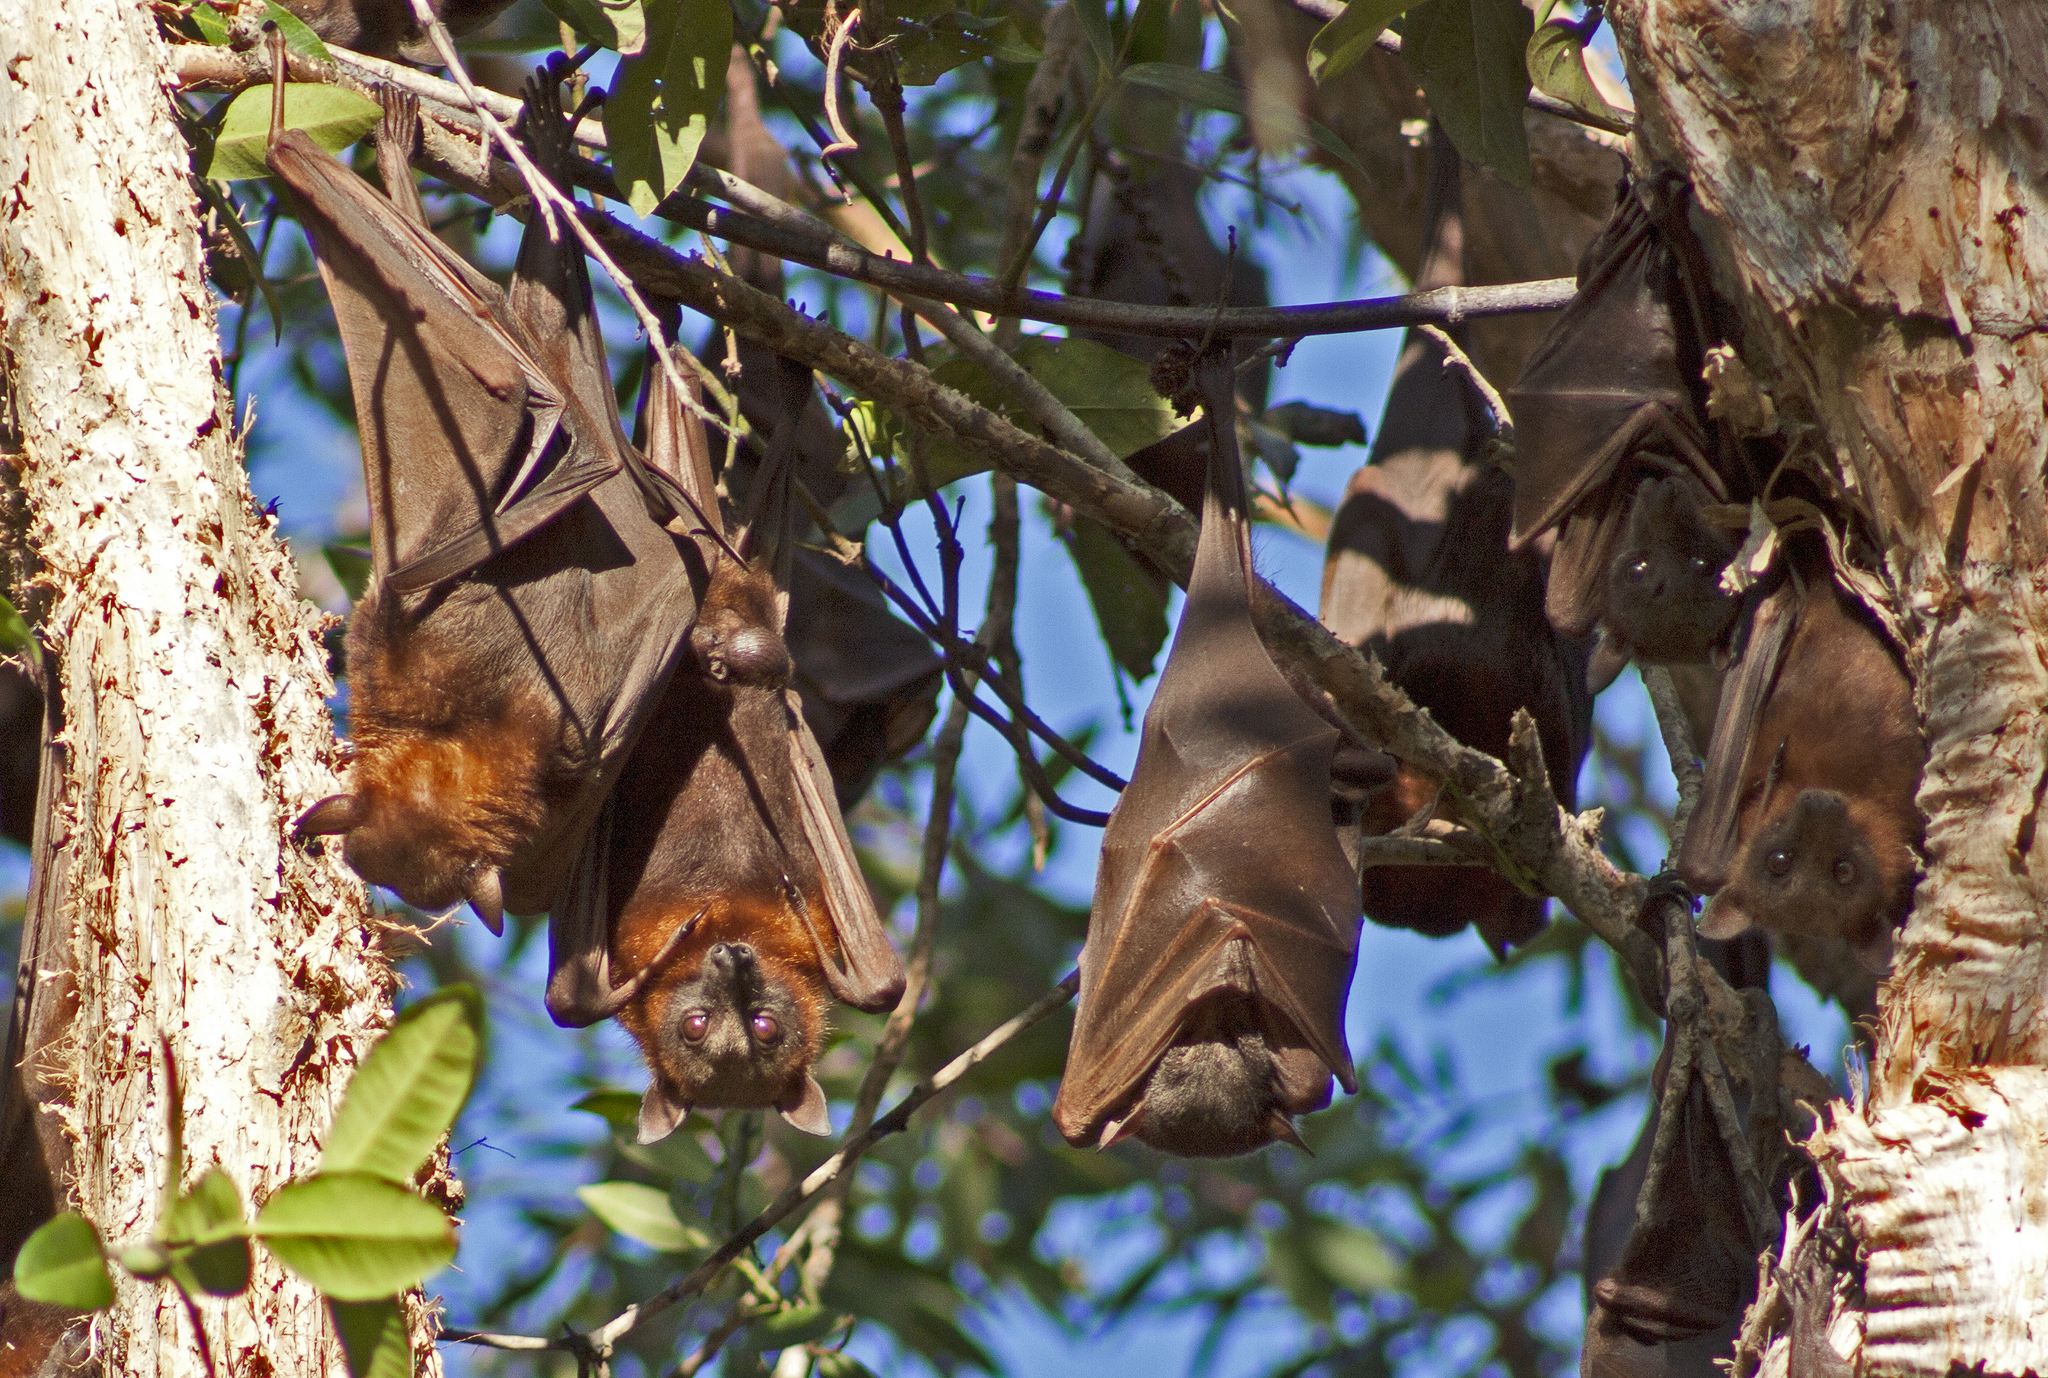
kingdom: Animalia
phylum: Chordata
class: Mammalia
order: Chiroptera
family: Pteropodidae
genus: Pteropus
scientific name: Pteropus scapulatus
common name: Little red flying fox
